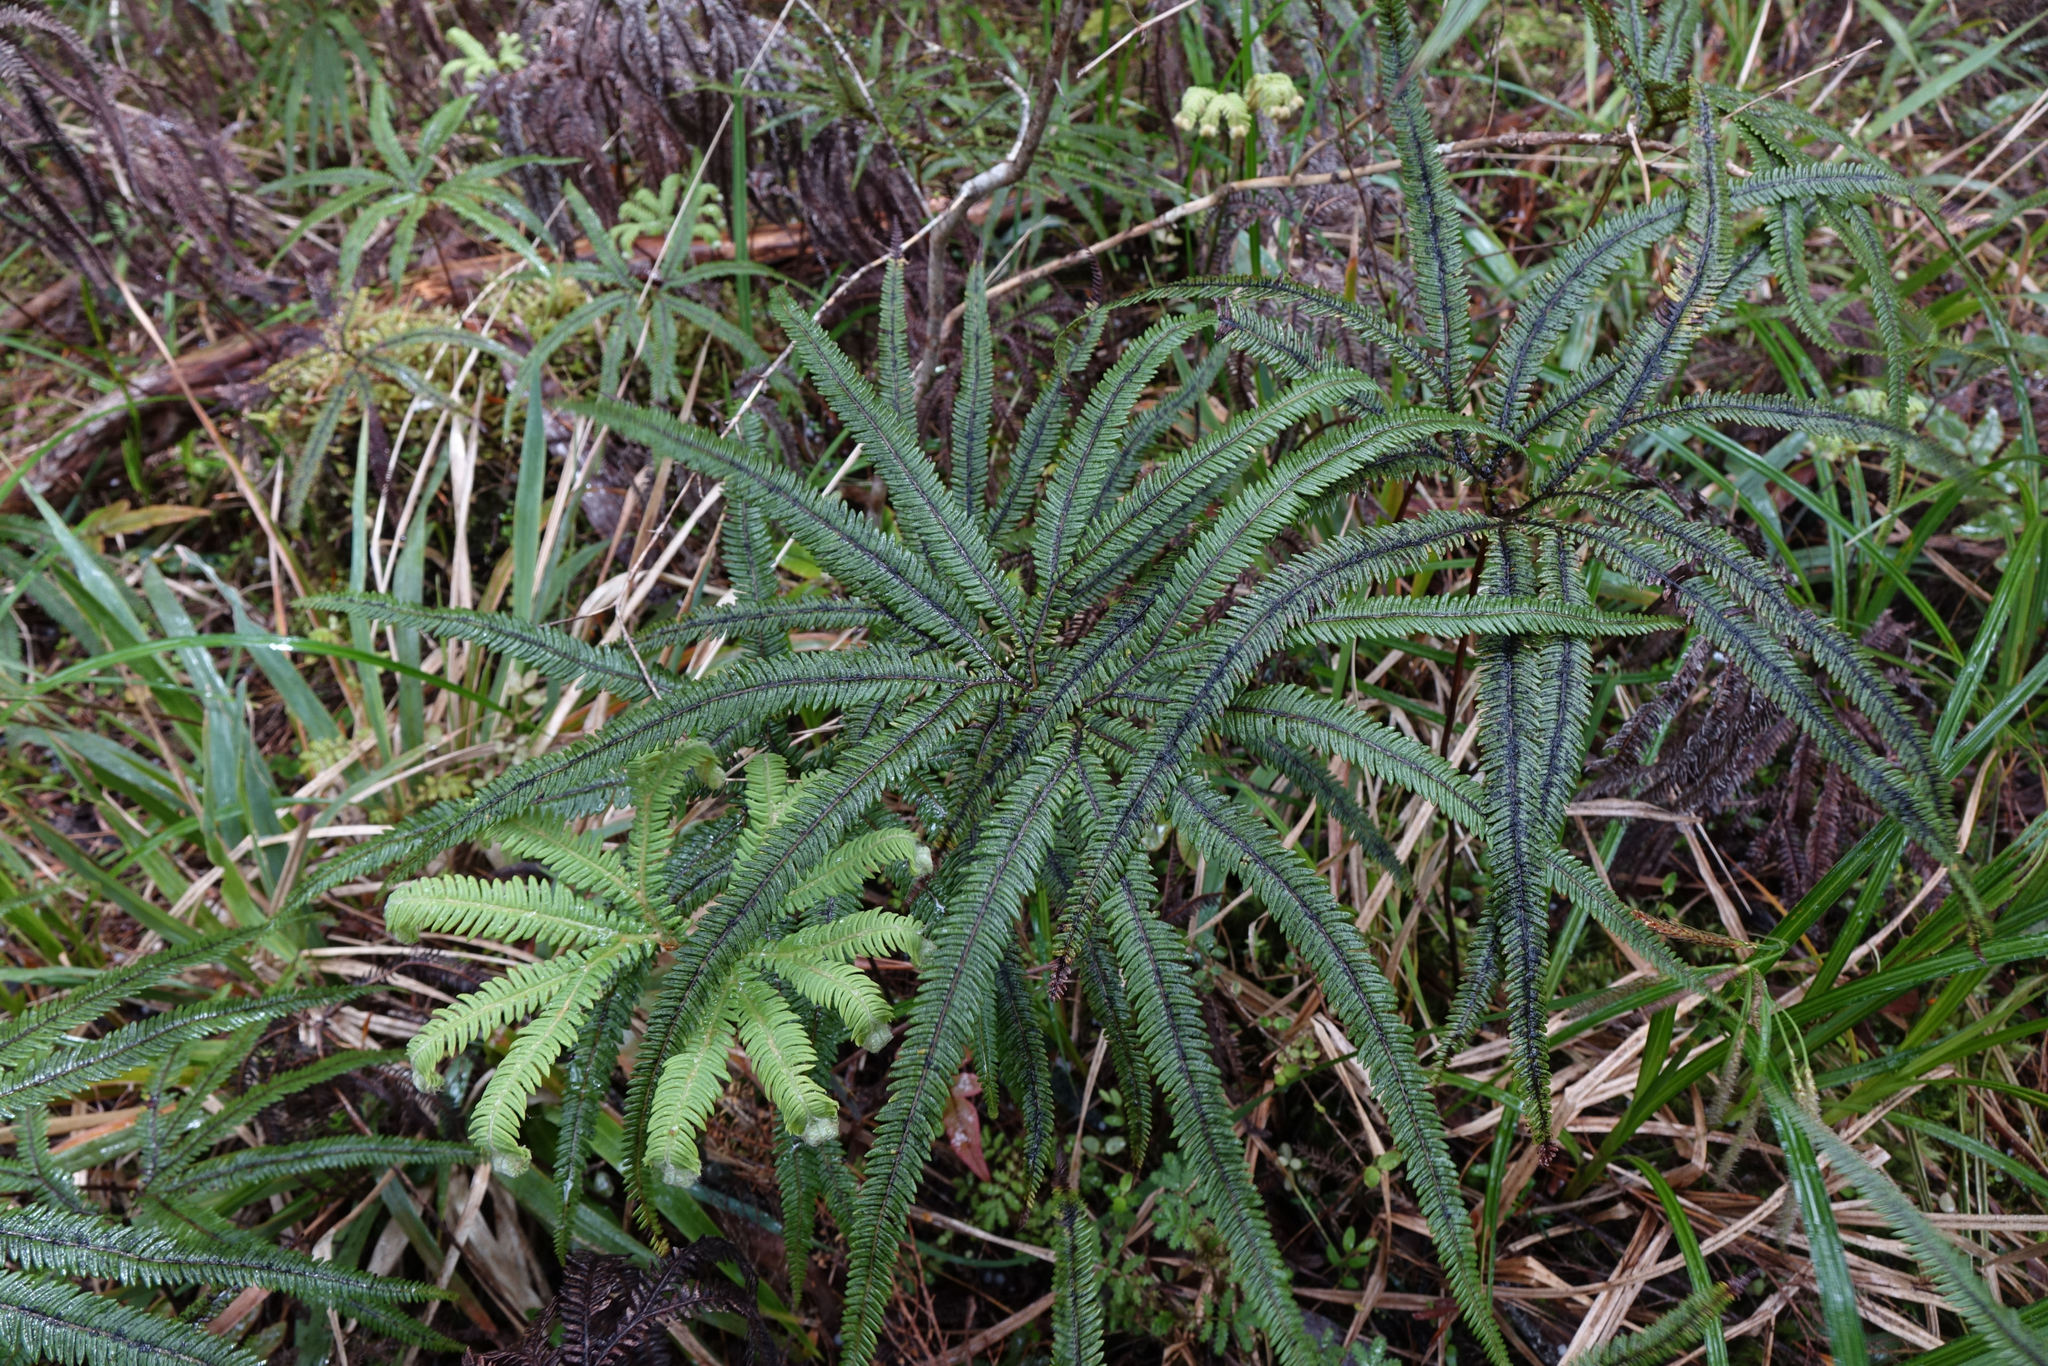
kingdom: Plantae
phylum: Tracheophyta
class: Polypodiopsida
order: Gleicheniales
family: Gleicheniaceae
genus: Sticherus
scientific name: Sticherus cunninghamii
